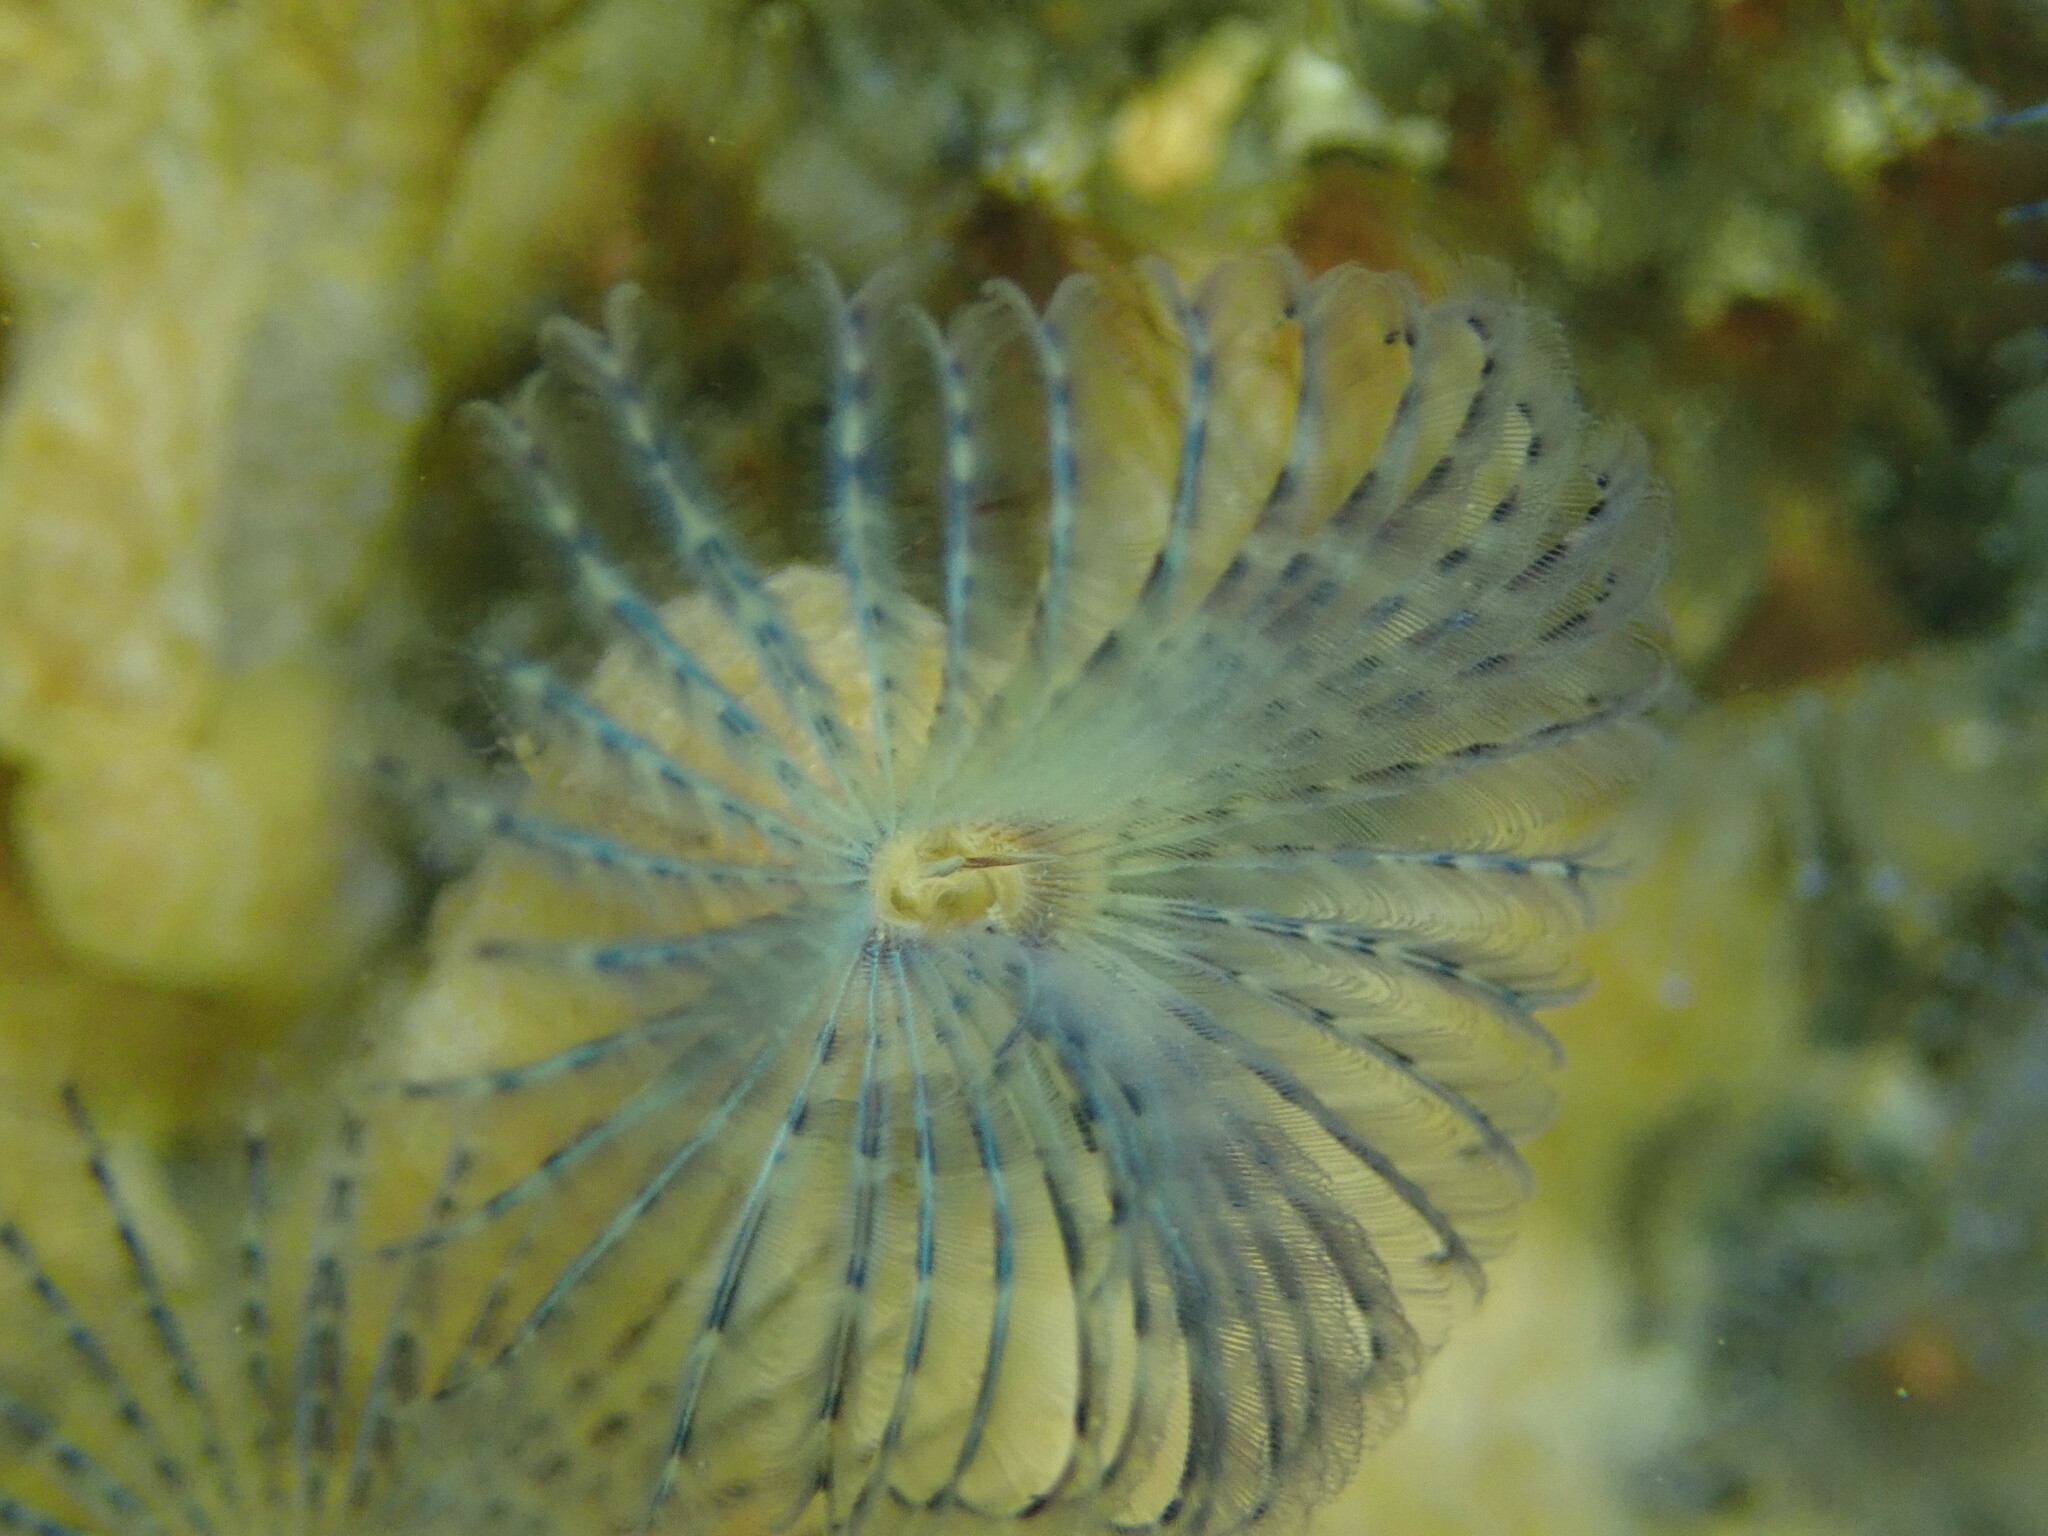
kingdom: Animalia
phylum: Annelida
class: Polychaeta
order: Sabellida
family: Sabellidae
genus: Bispira
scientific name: Bispira pacifica
